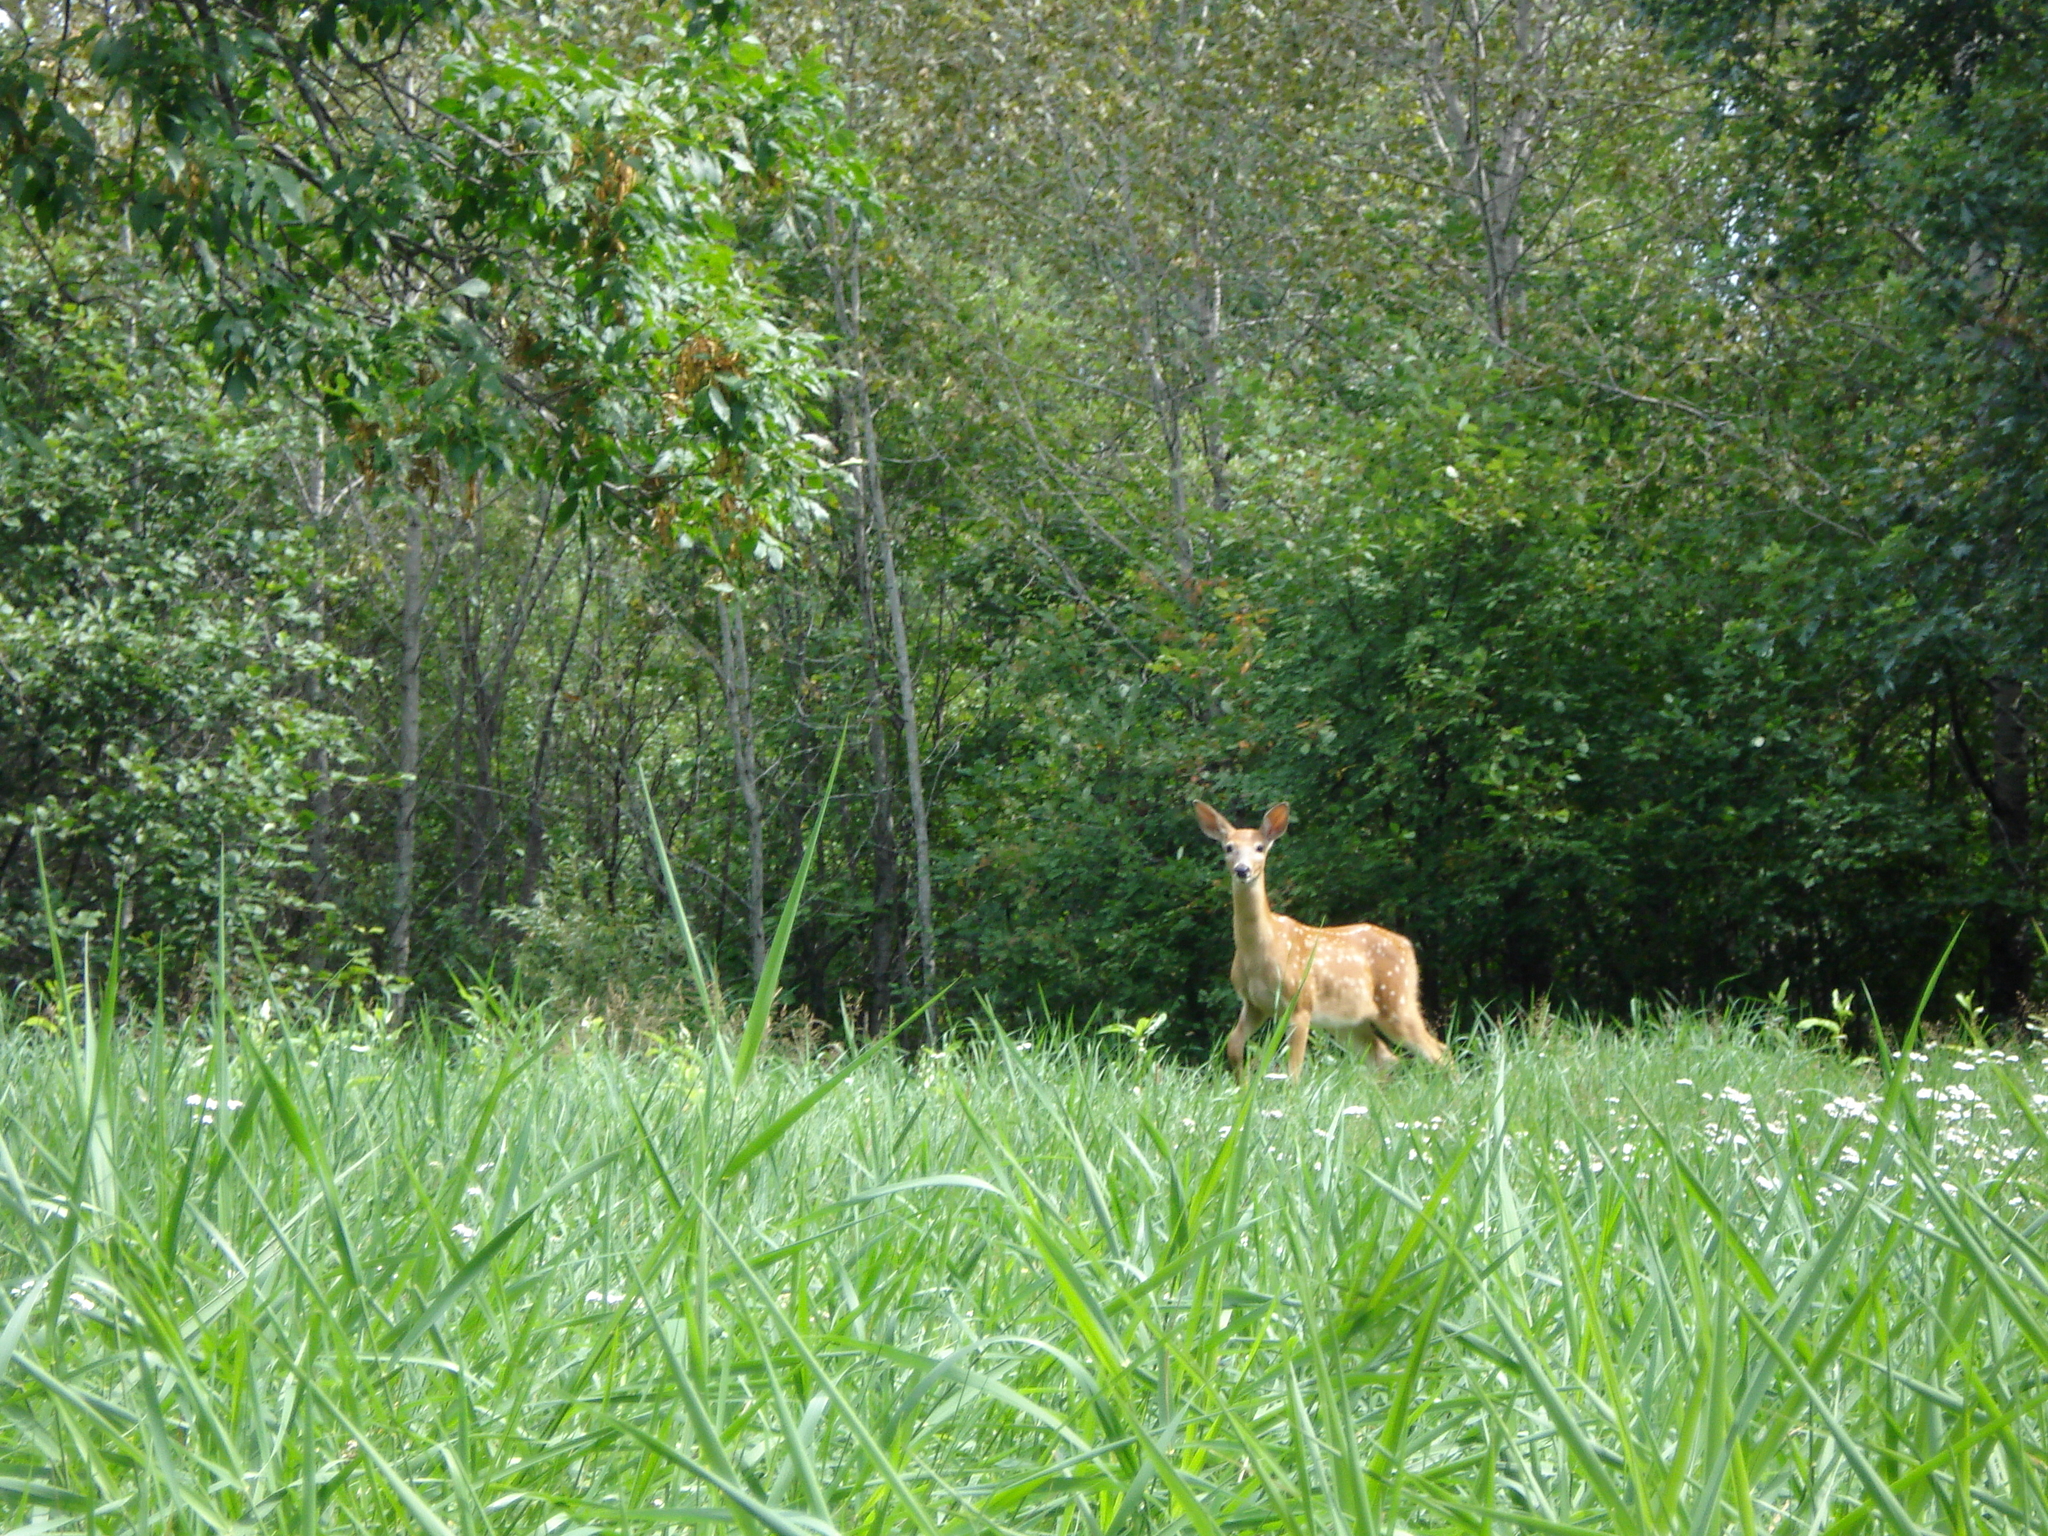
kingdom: Animalia
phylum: Chordata
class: Mammalia
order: Artiodactyla
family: Cervidae
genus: Odocoileus
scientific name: Odocoileus virginianus
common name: White-tailed deer
